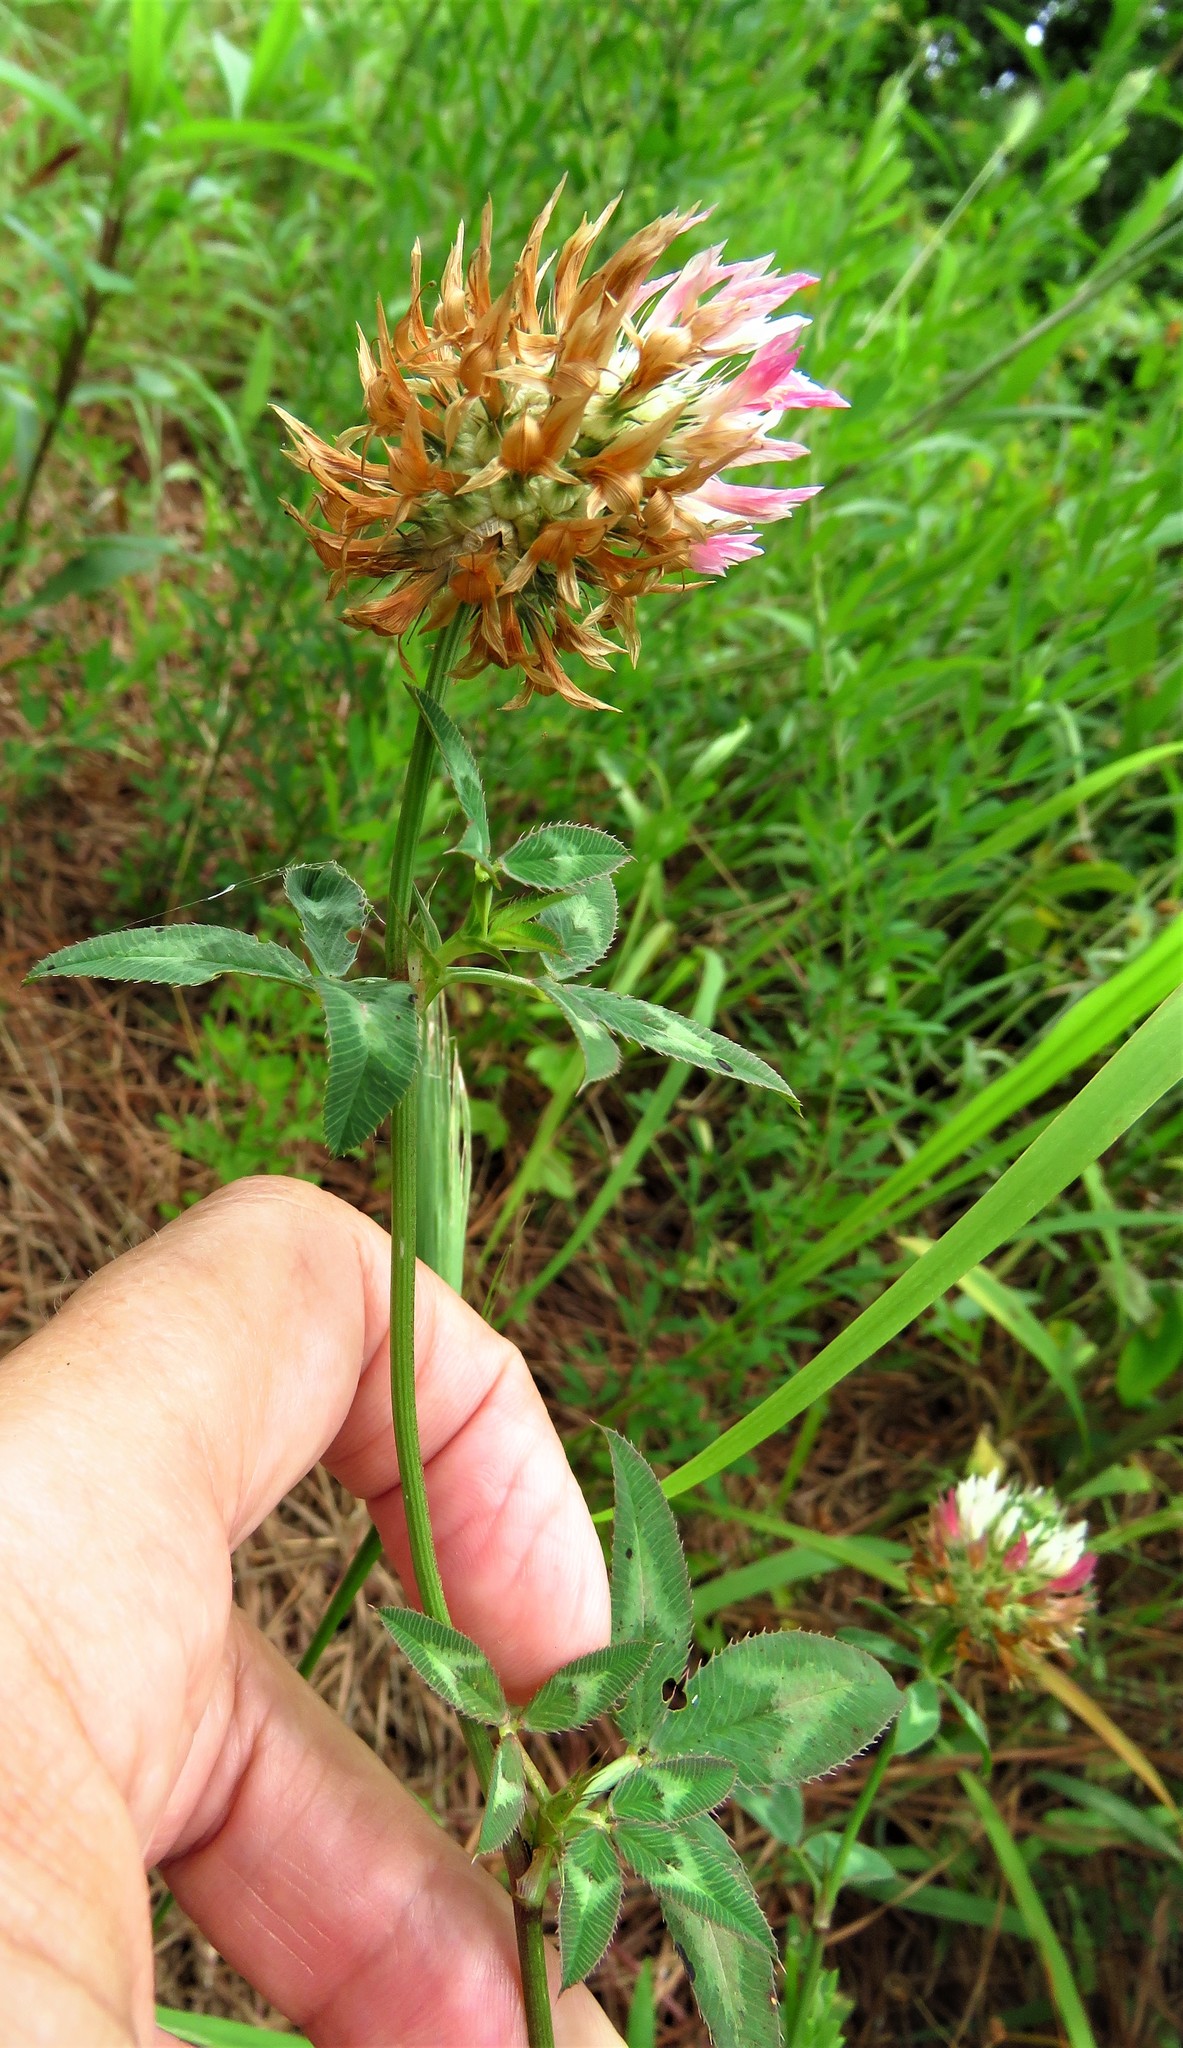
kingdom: Plantae
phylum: Tracheophyta
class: Magnoliopsida
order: Fabales
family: Fabaceae
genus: Trifolium
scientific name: Trifolium vesiculosum
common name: Arrowleaf clover
